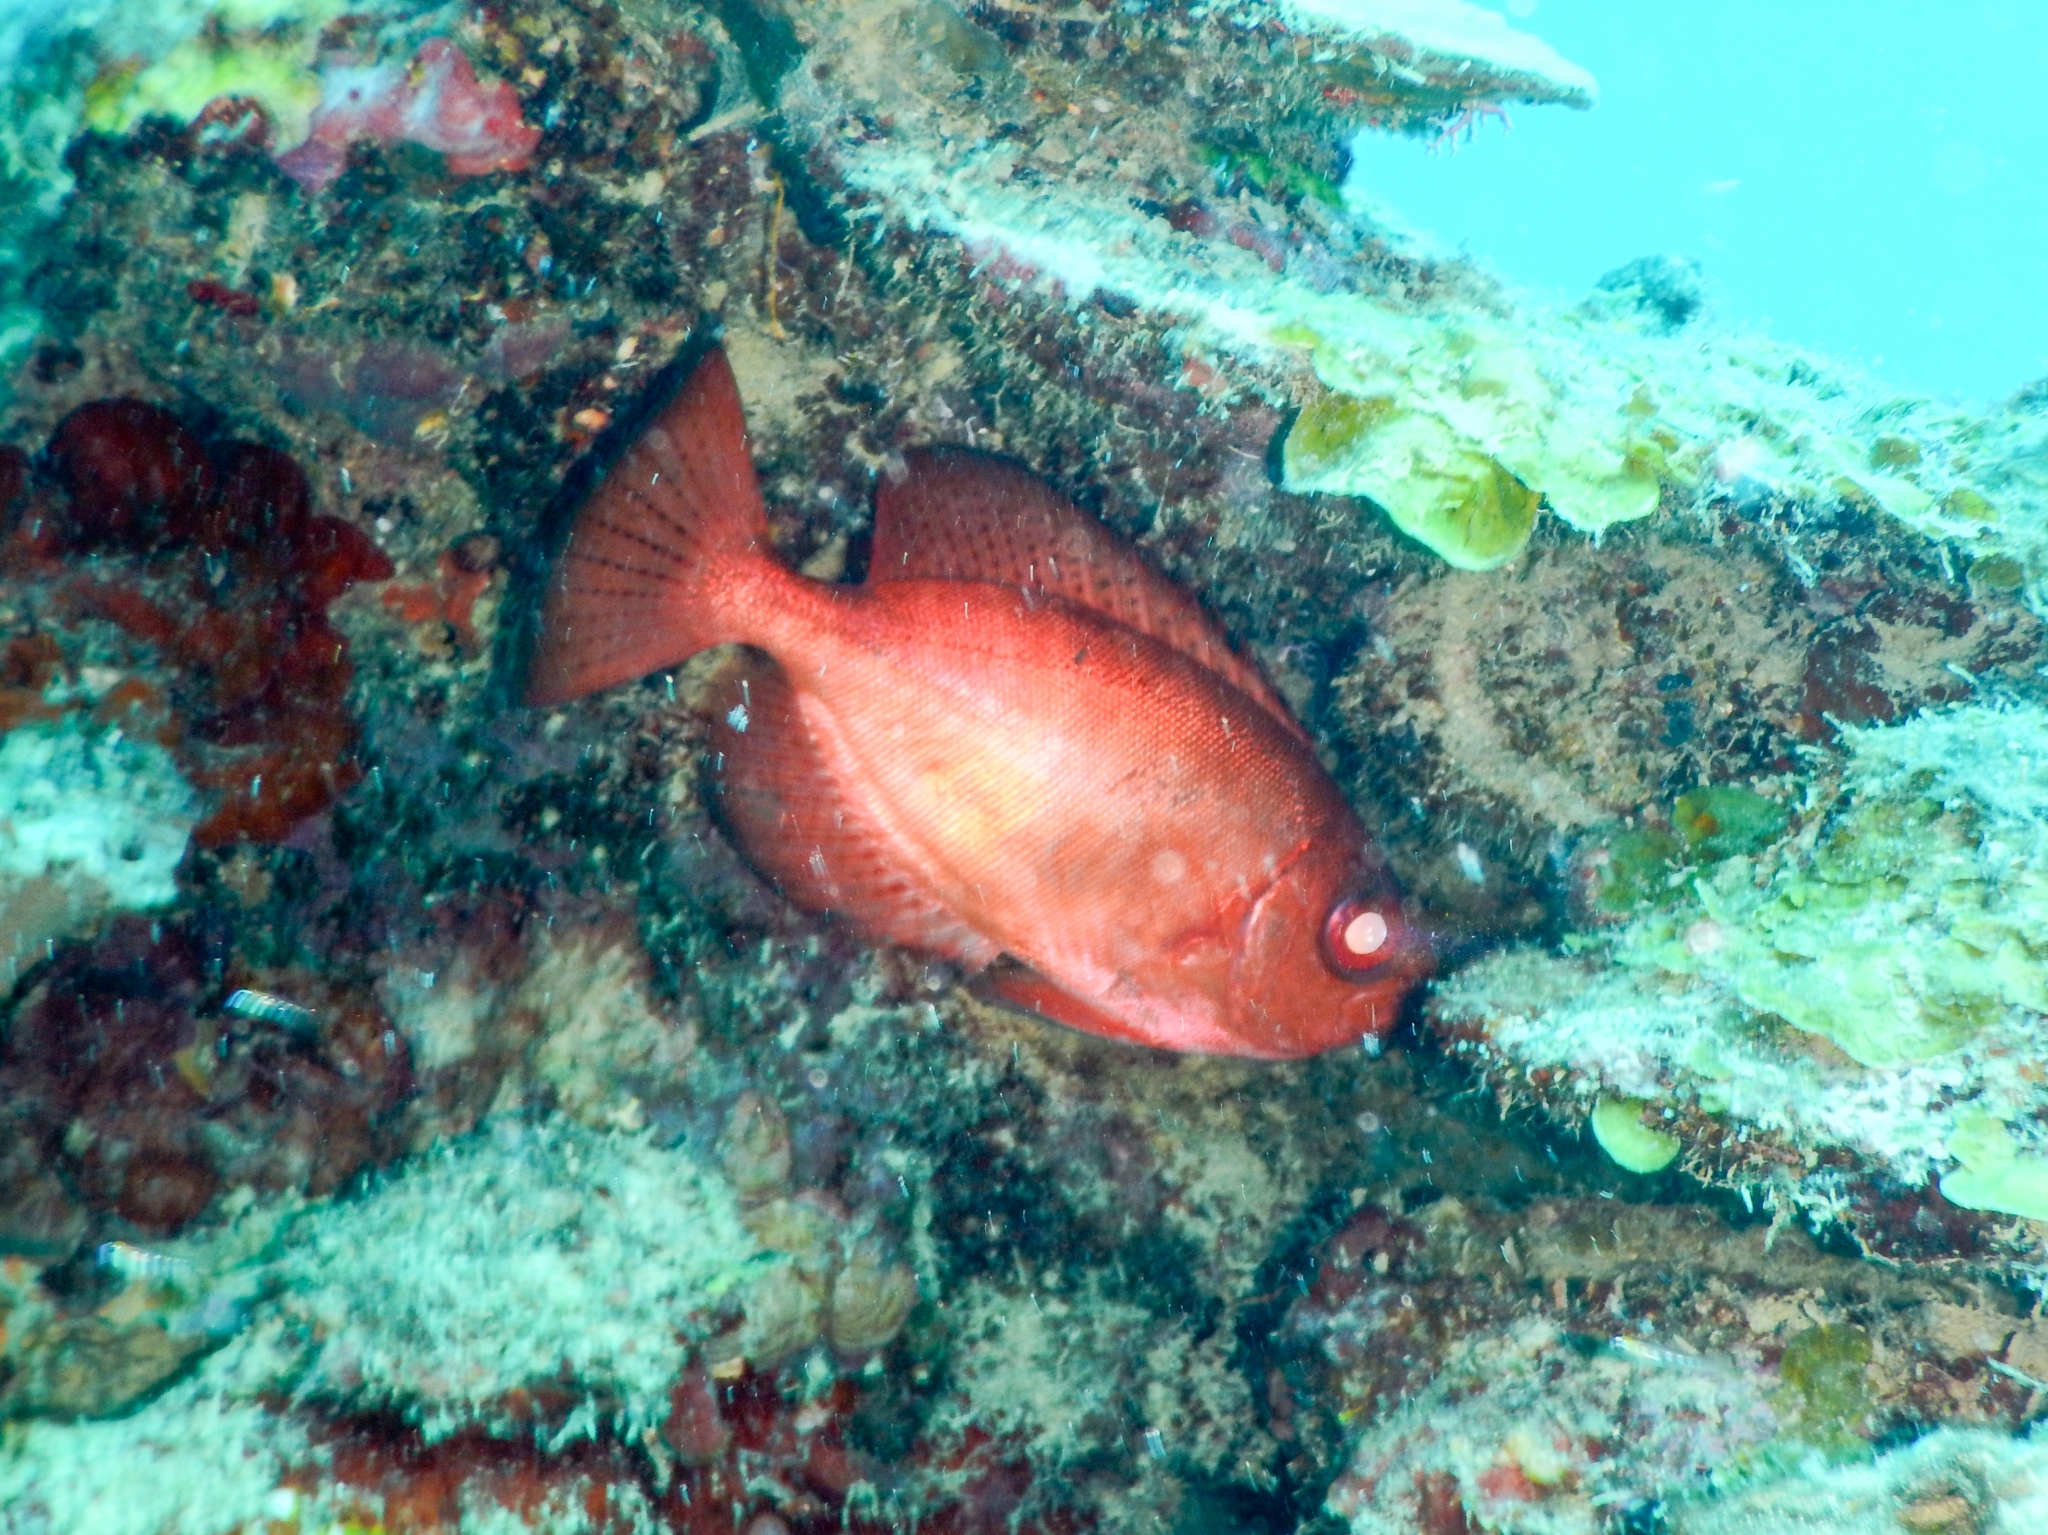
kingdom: Animalia
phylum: Chordata
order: Perciformes
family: Priacanthidae
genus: Heteropriacanthus
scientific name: Heteropriacanthus cruentatus
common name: Glasseye
